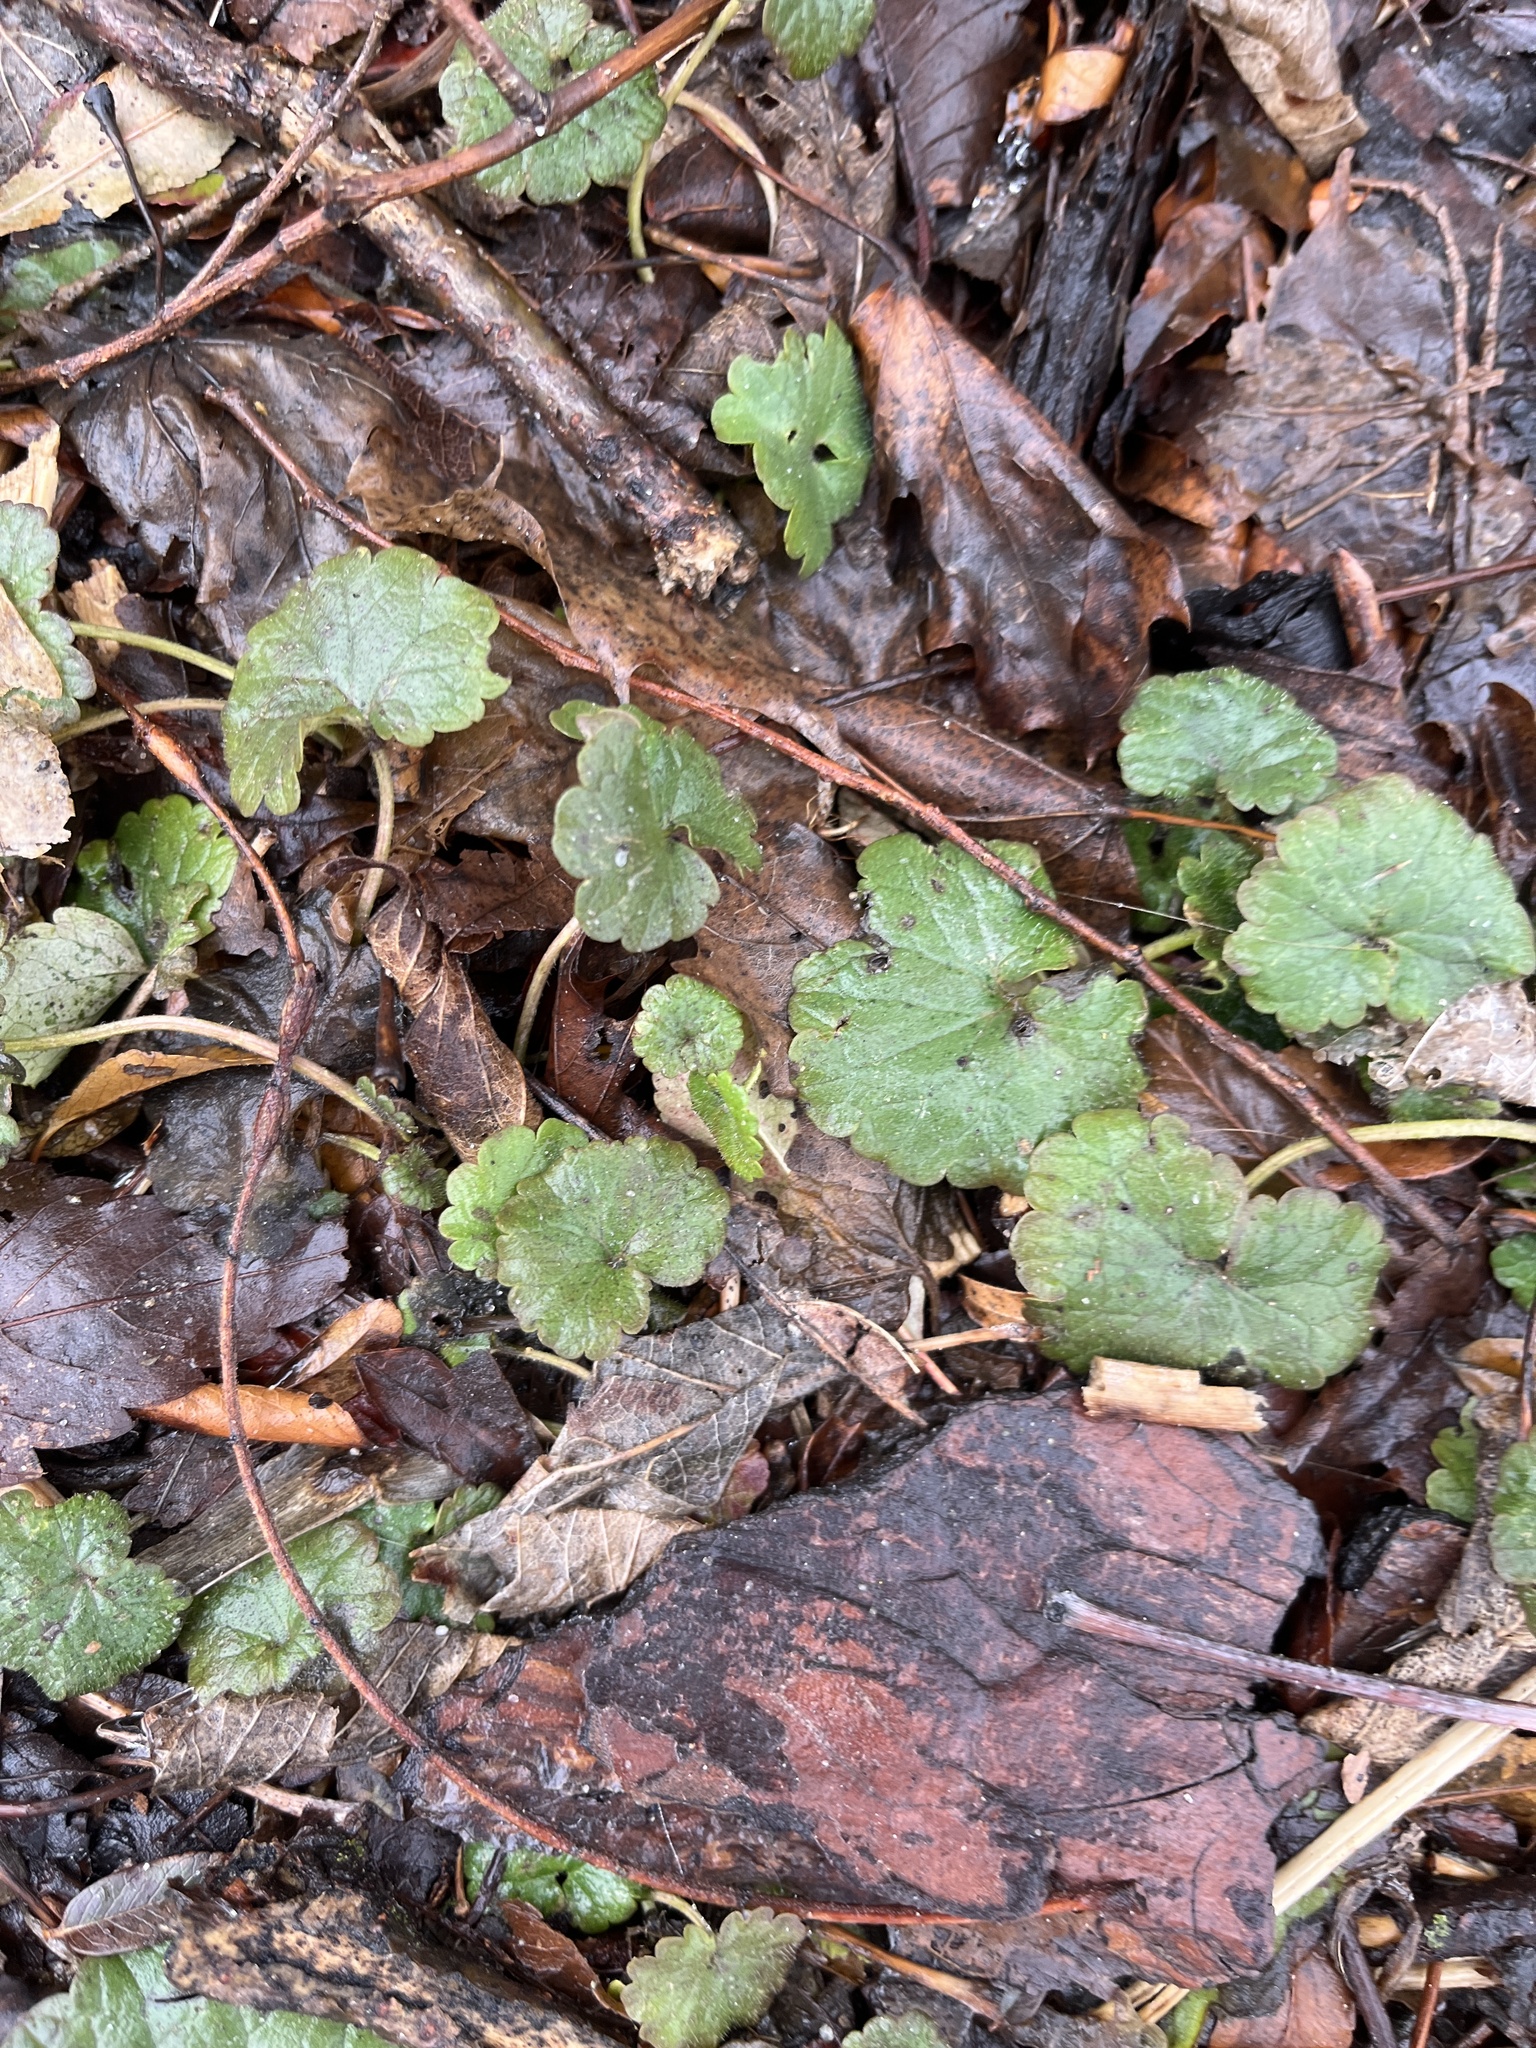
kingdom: Plantae
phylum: Tracheophyta
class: Magnoliopsida
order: Lamiales
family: Lamiaceae
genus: Glechoma
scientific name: Glechoma hederacea
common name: Ground ivy
